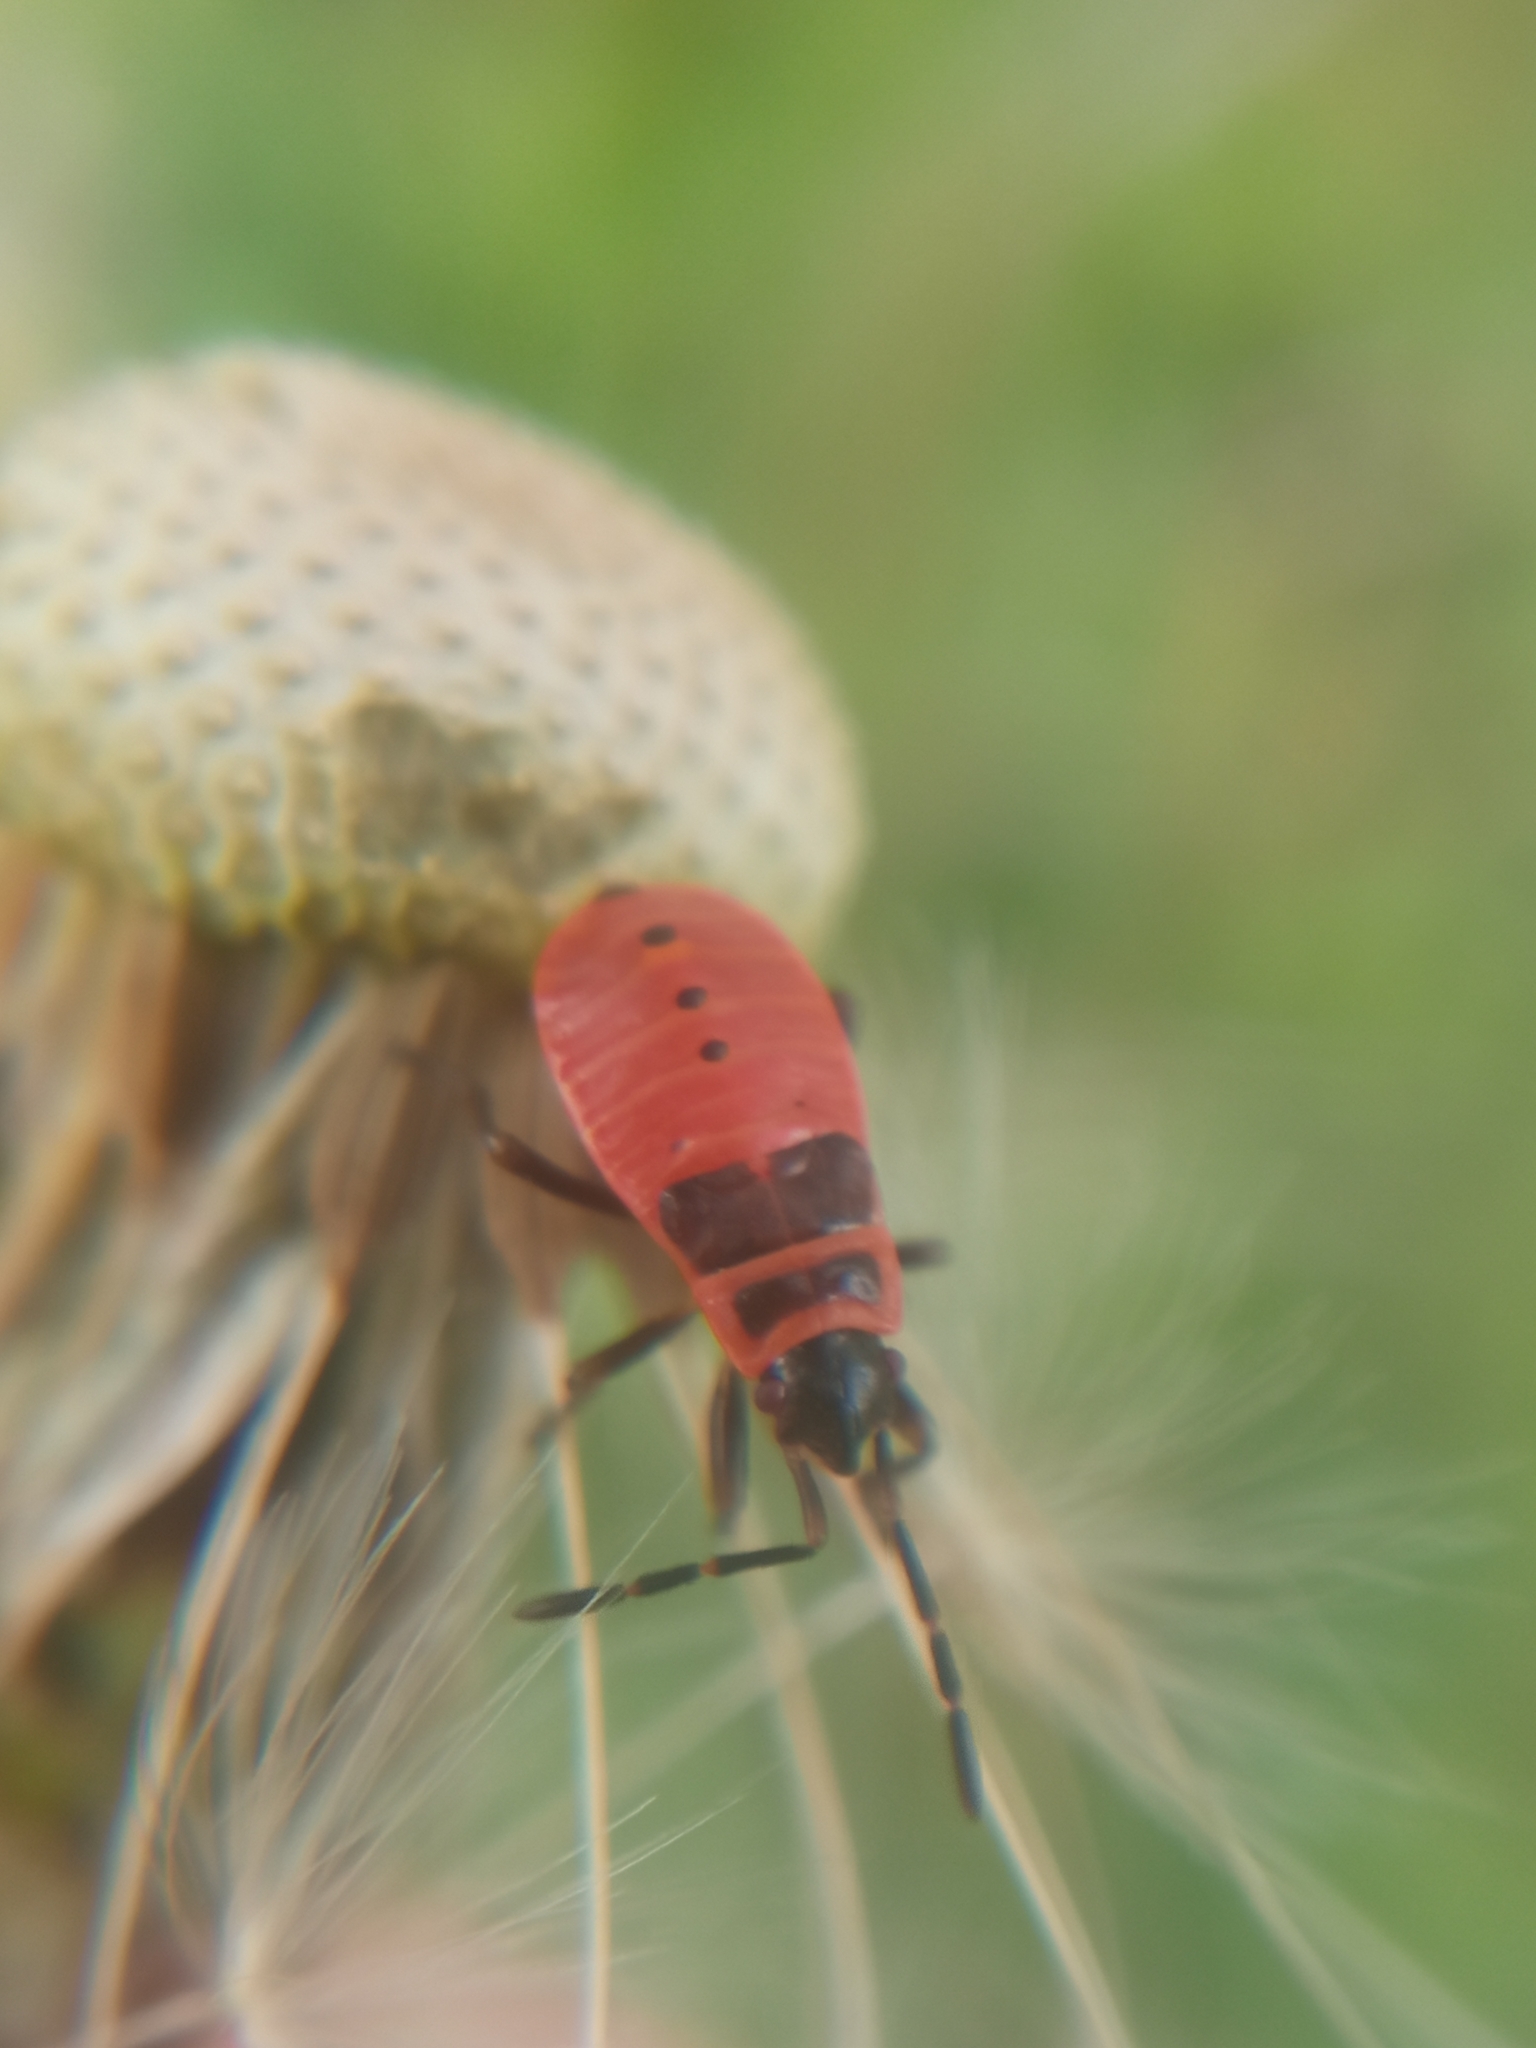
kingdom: Animalia
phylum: Arthropoda
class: Insecta
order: Hemiptera
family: Pyrrhocoridae
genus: Pyrrhocoris
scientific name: Pyrrhocoris apterus
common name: Firebug
